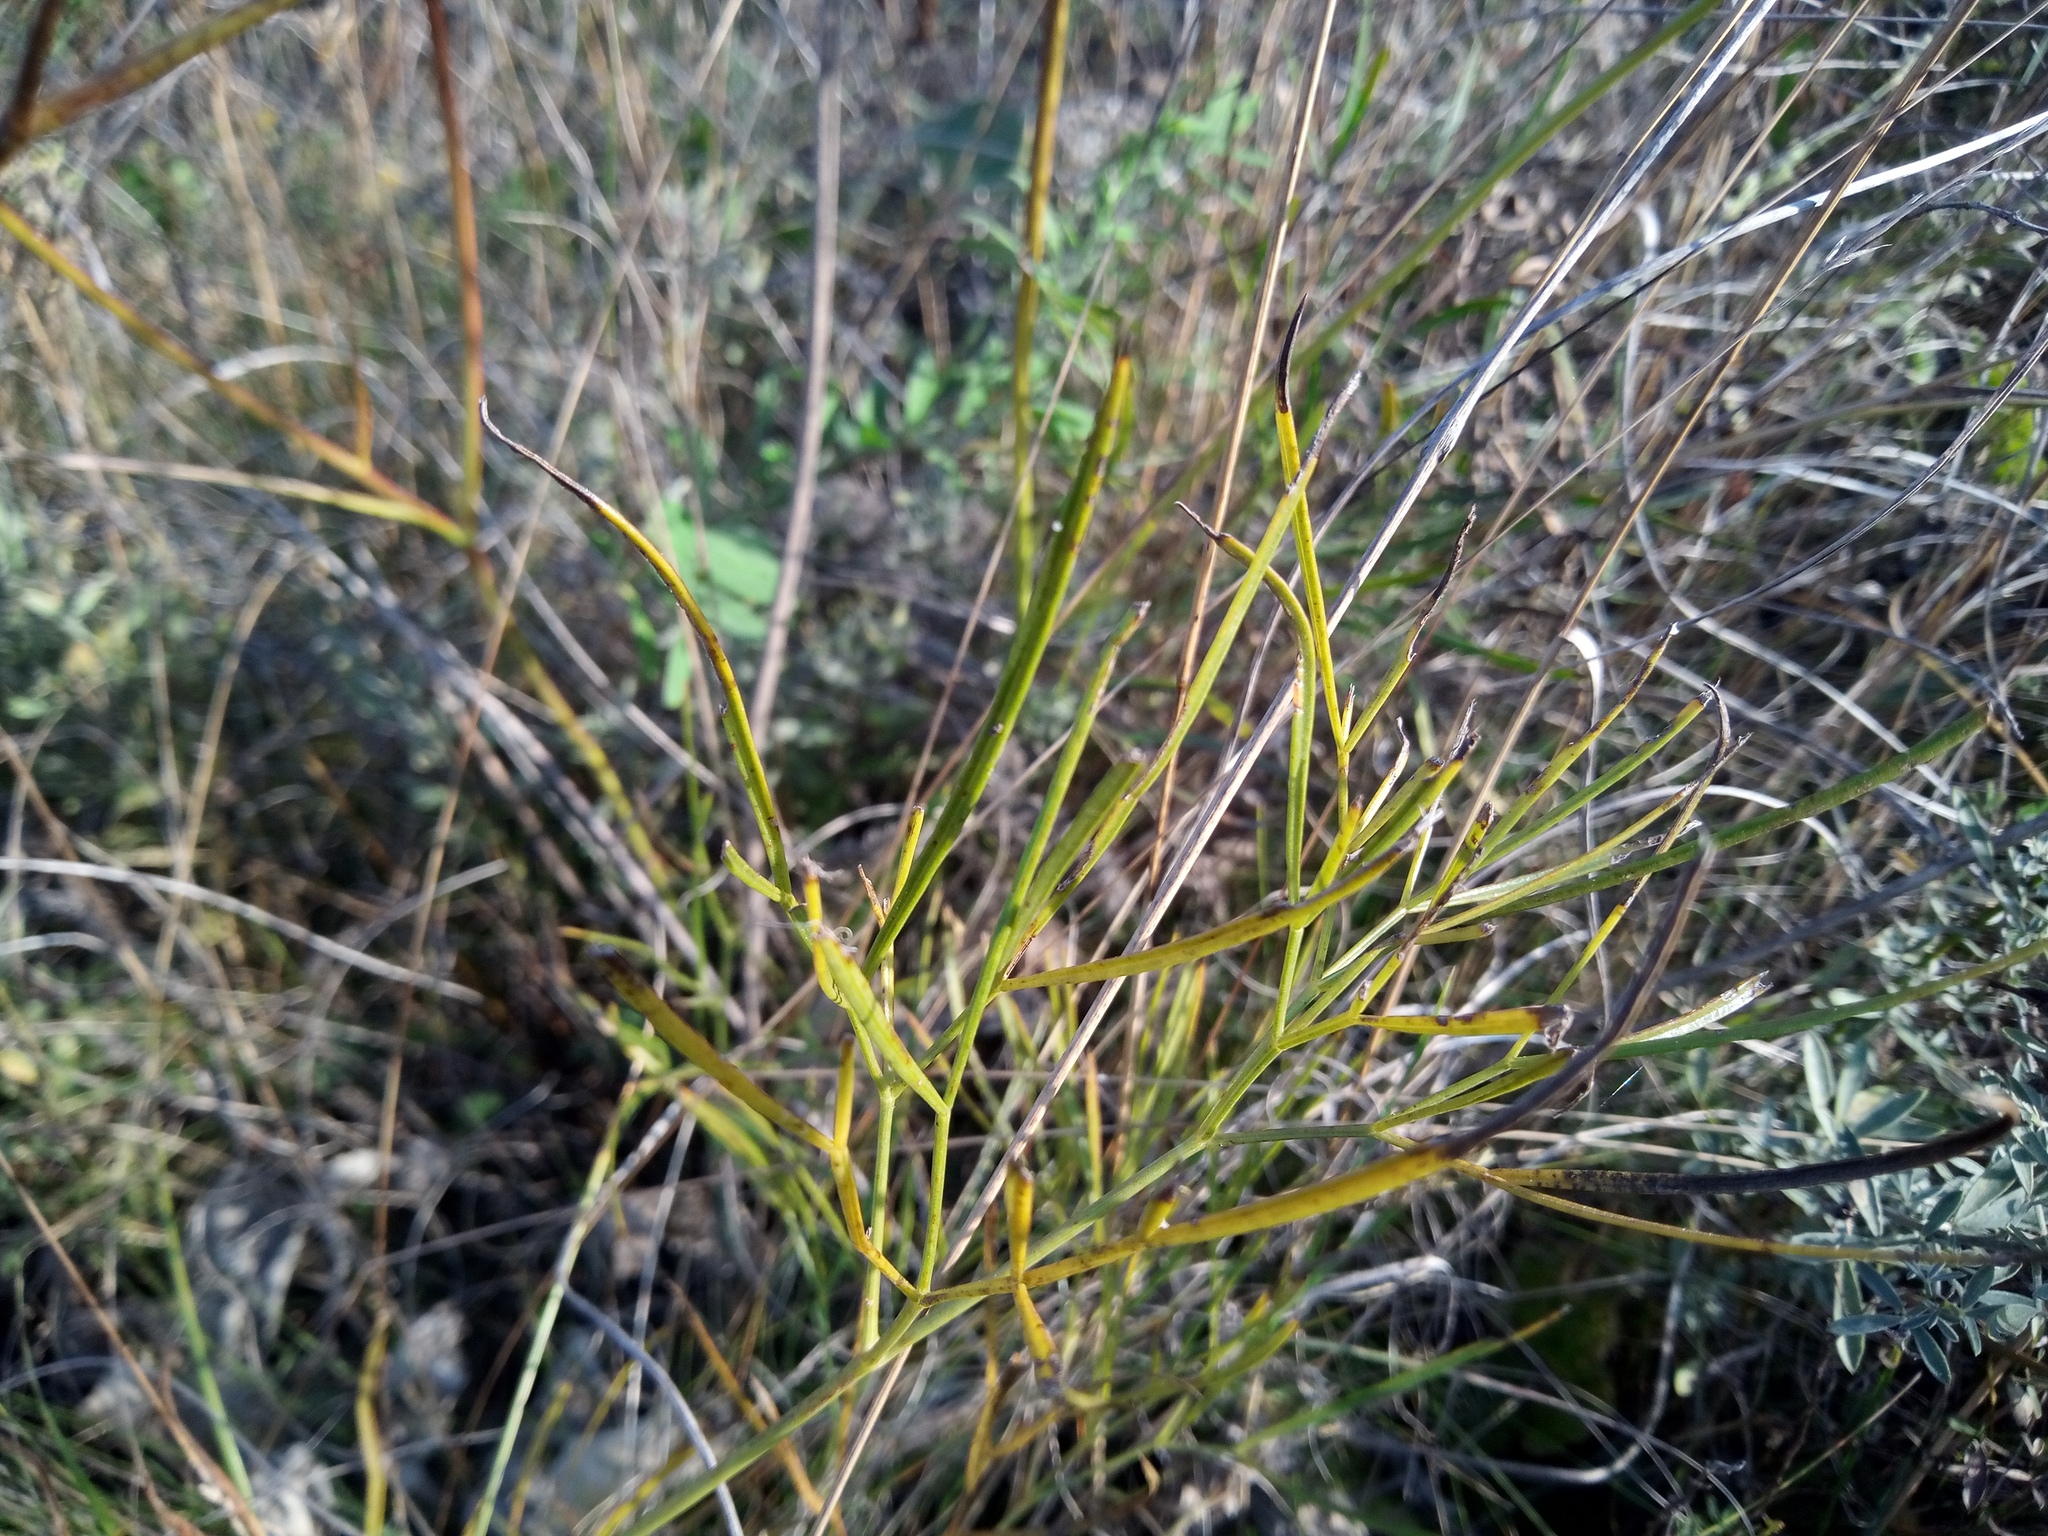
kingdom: Plantae
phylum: Tracheophyta
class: Magnoliopsida
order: Apiales
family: Apiaceae
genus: Peucedanum
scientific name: Peucedanum ruthenicum
